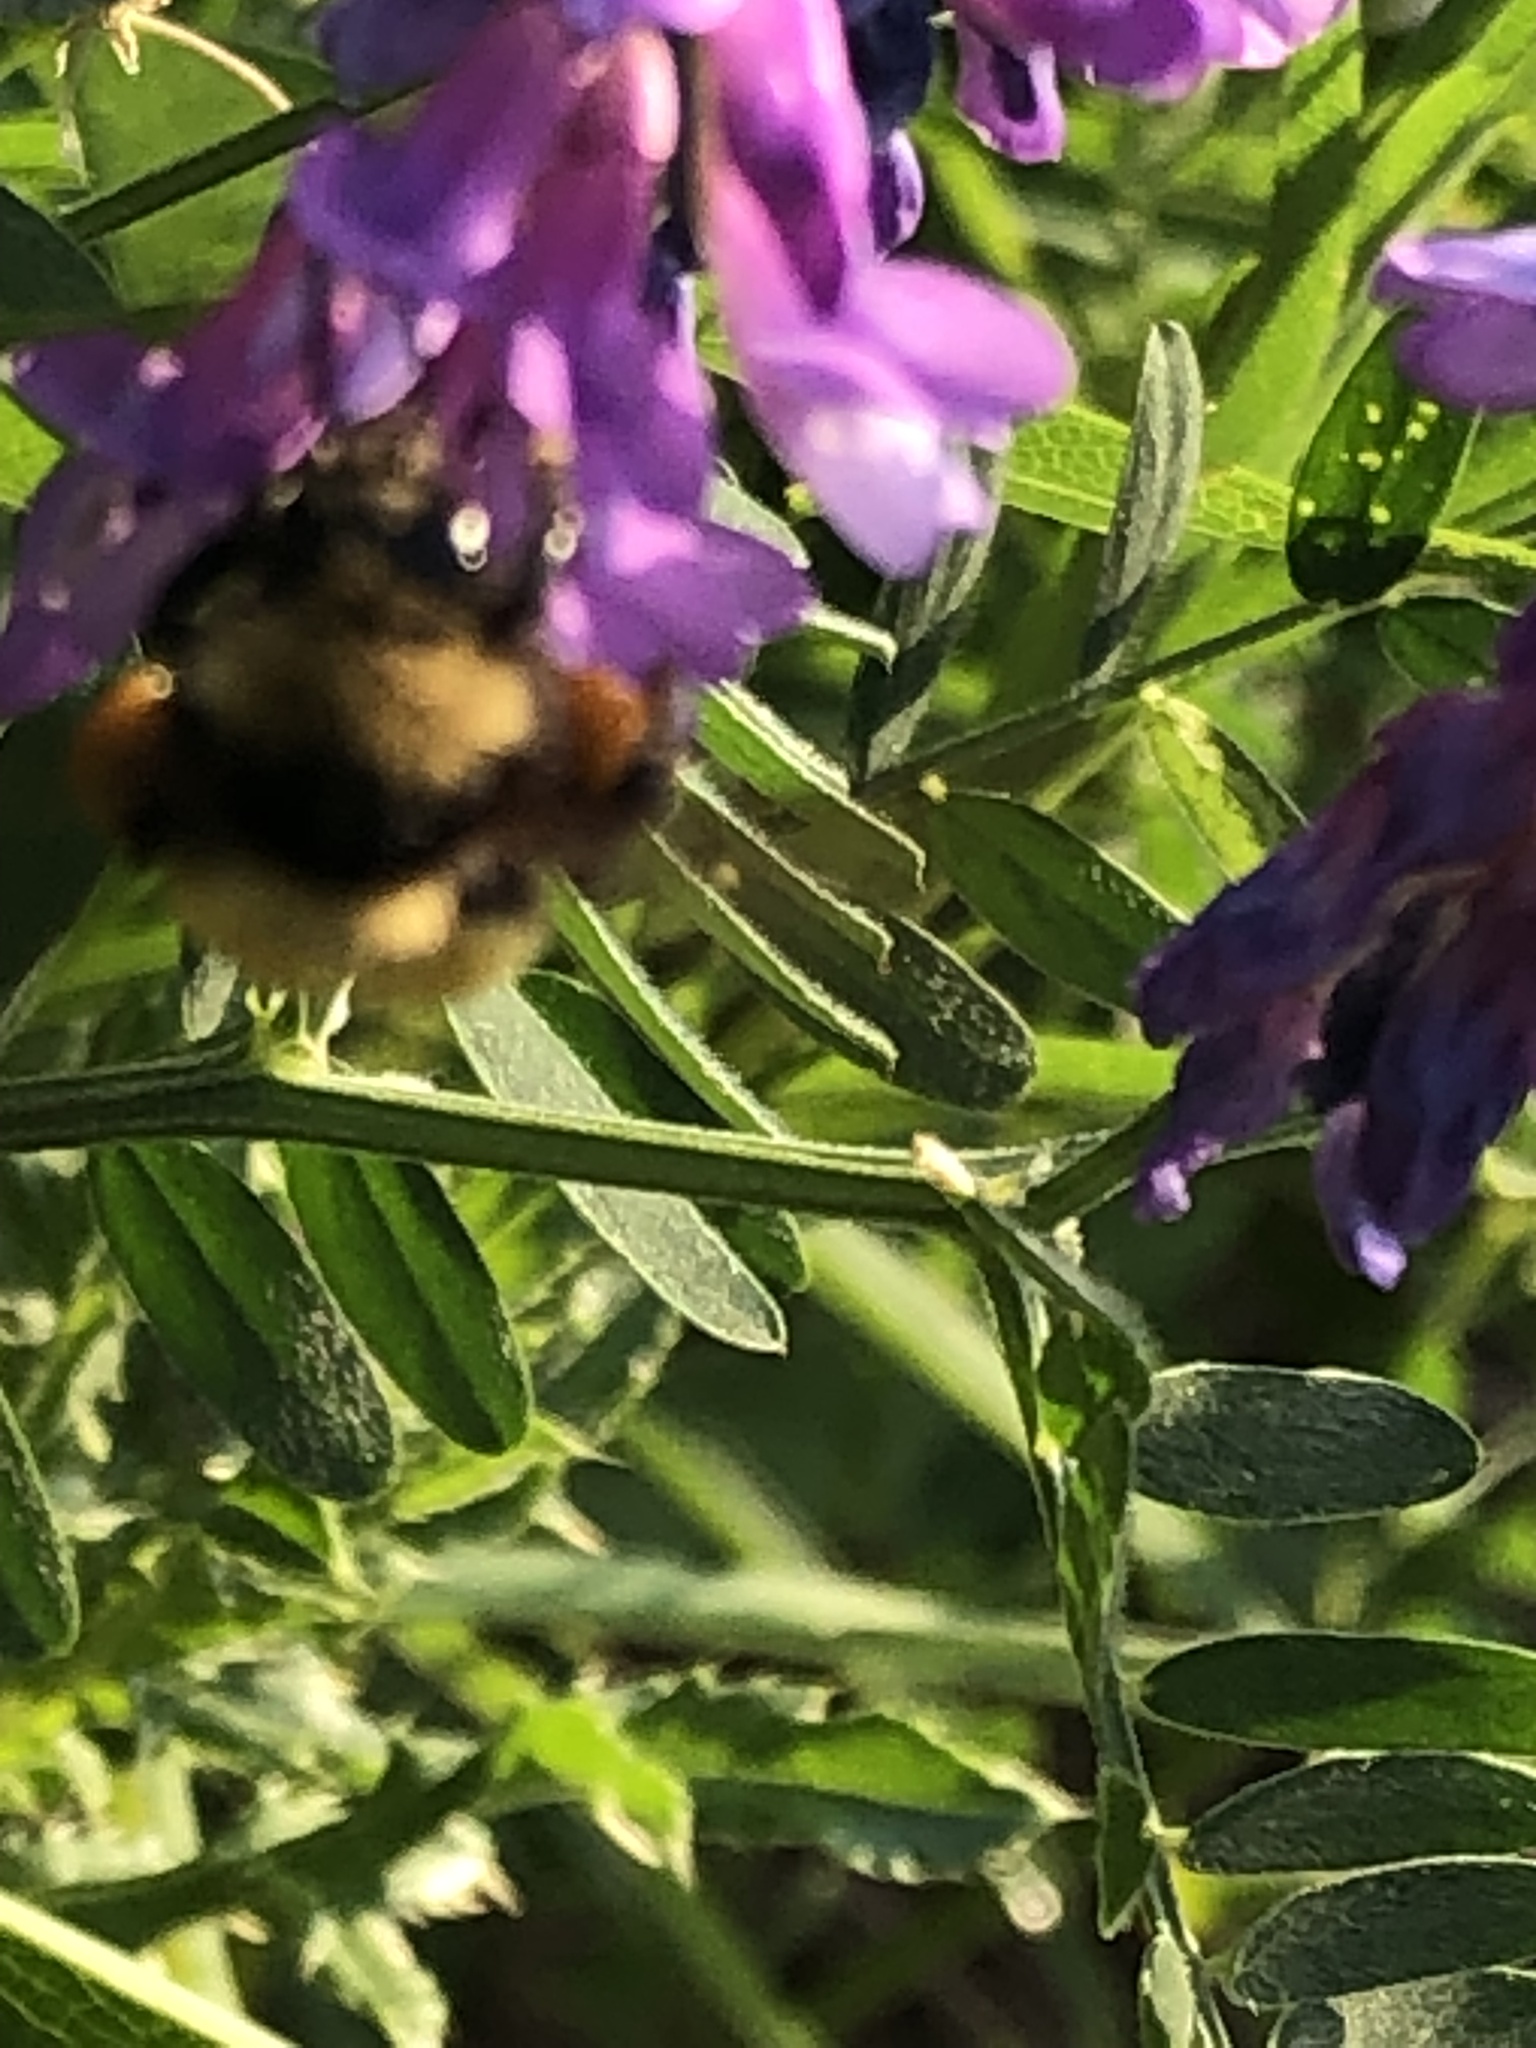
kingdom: Animalia
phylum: Arthropoda
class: Insecta
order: Hymenoptera
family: Apidae
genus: Bombus
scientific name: Bombus borealis
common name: Northern amber bumble bee
